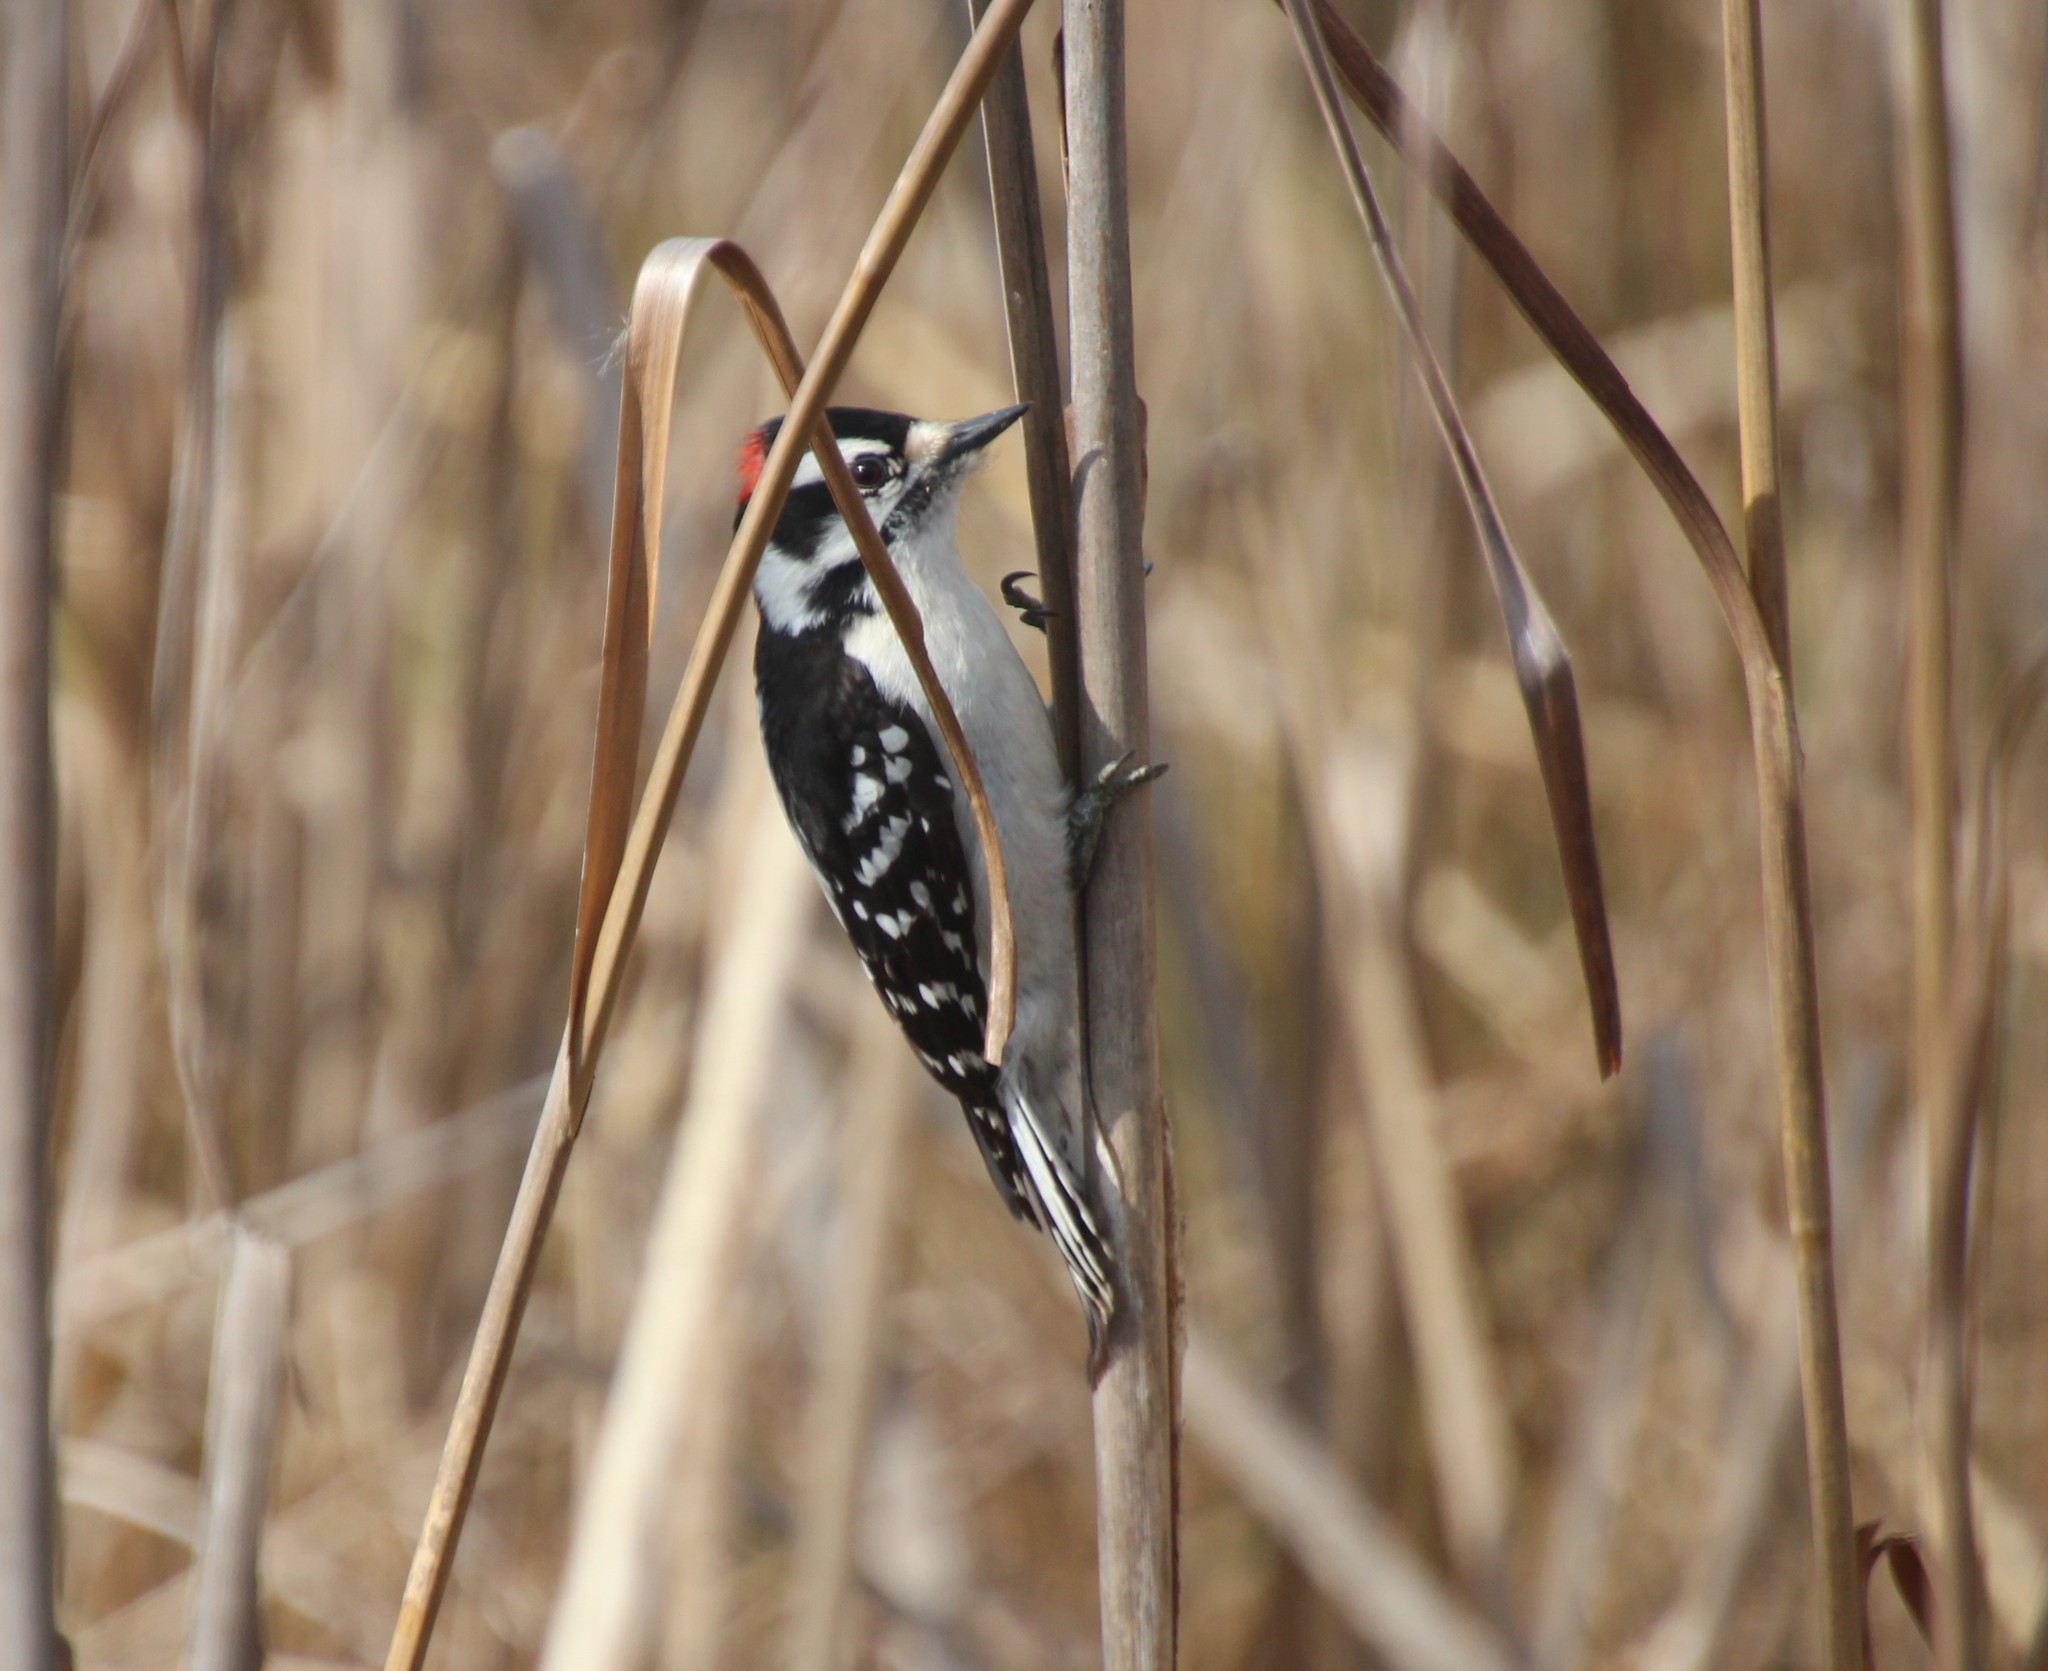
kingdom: Animalia
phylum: Chordata
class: Aves
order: Piciformes
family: Picidae
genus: Dryobates
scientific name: Dryobates pubescens
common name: Downy woodpecker
